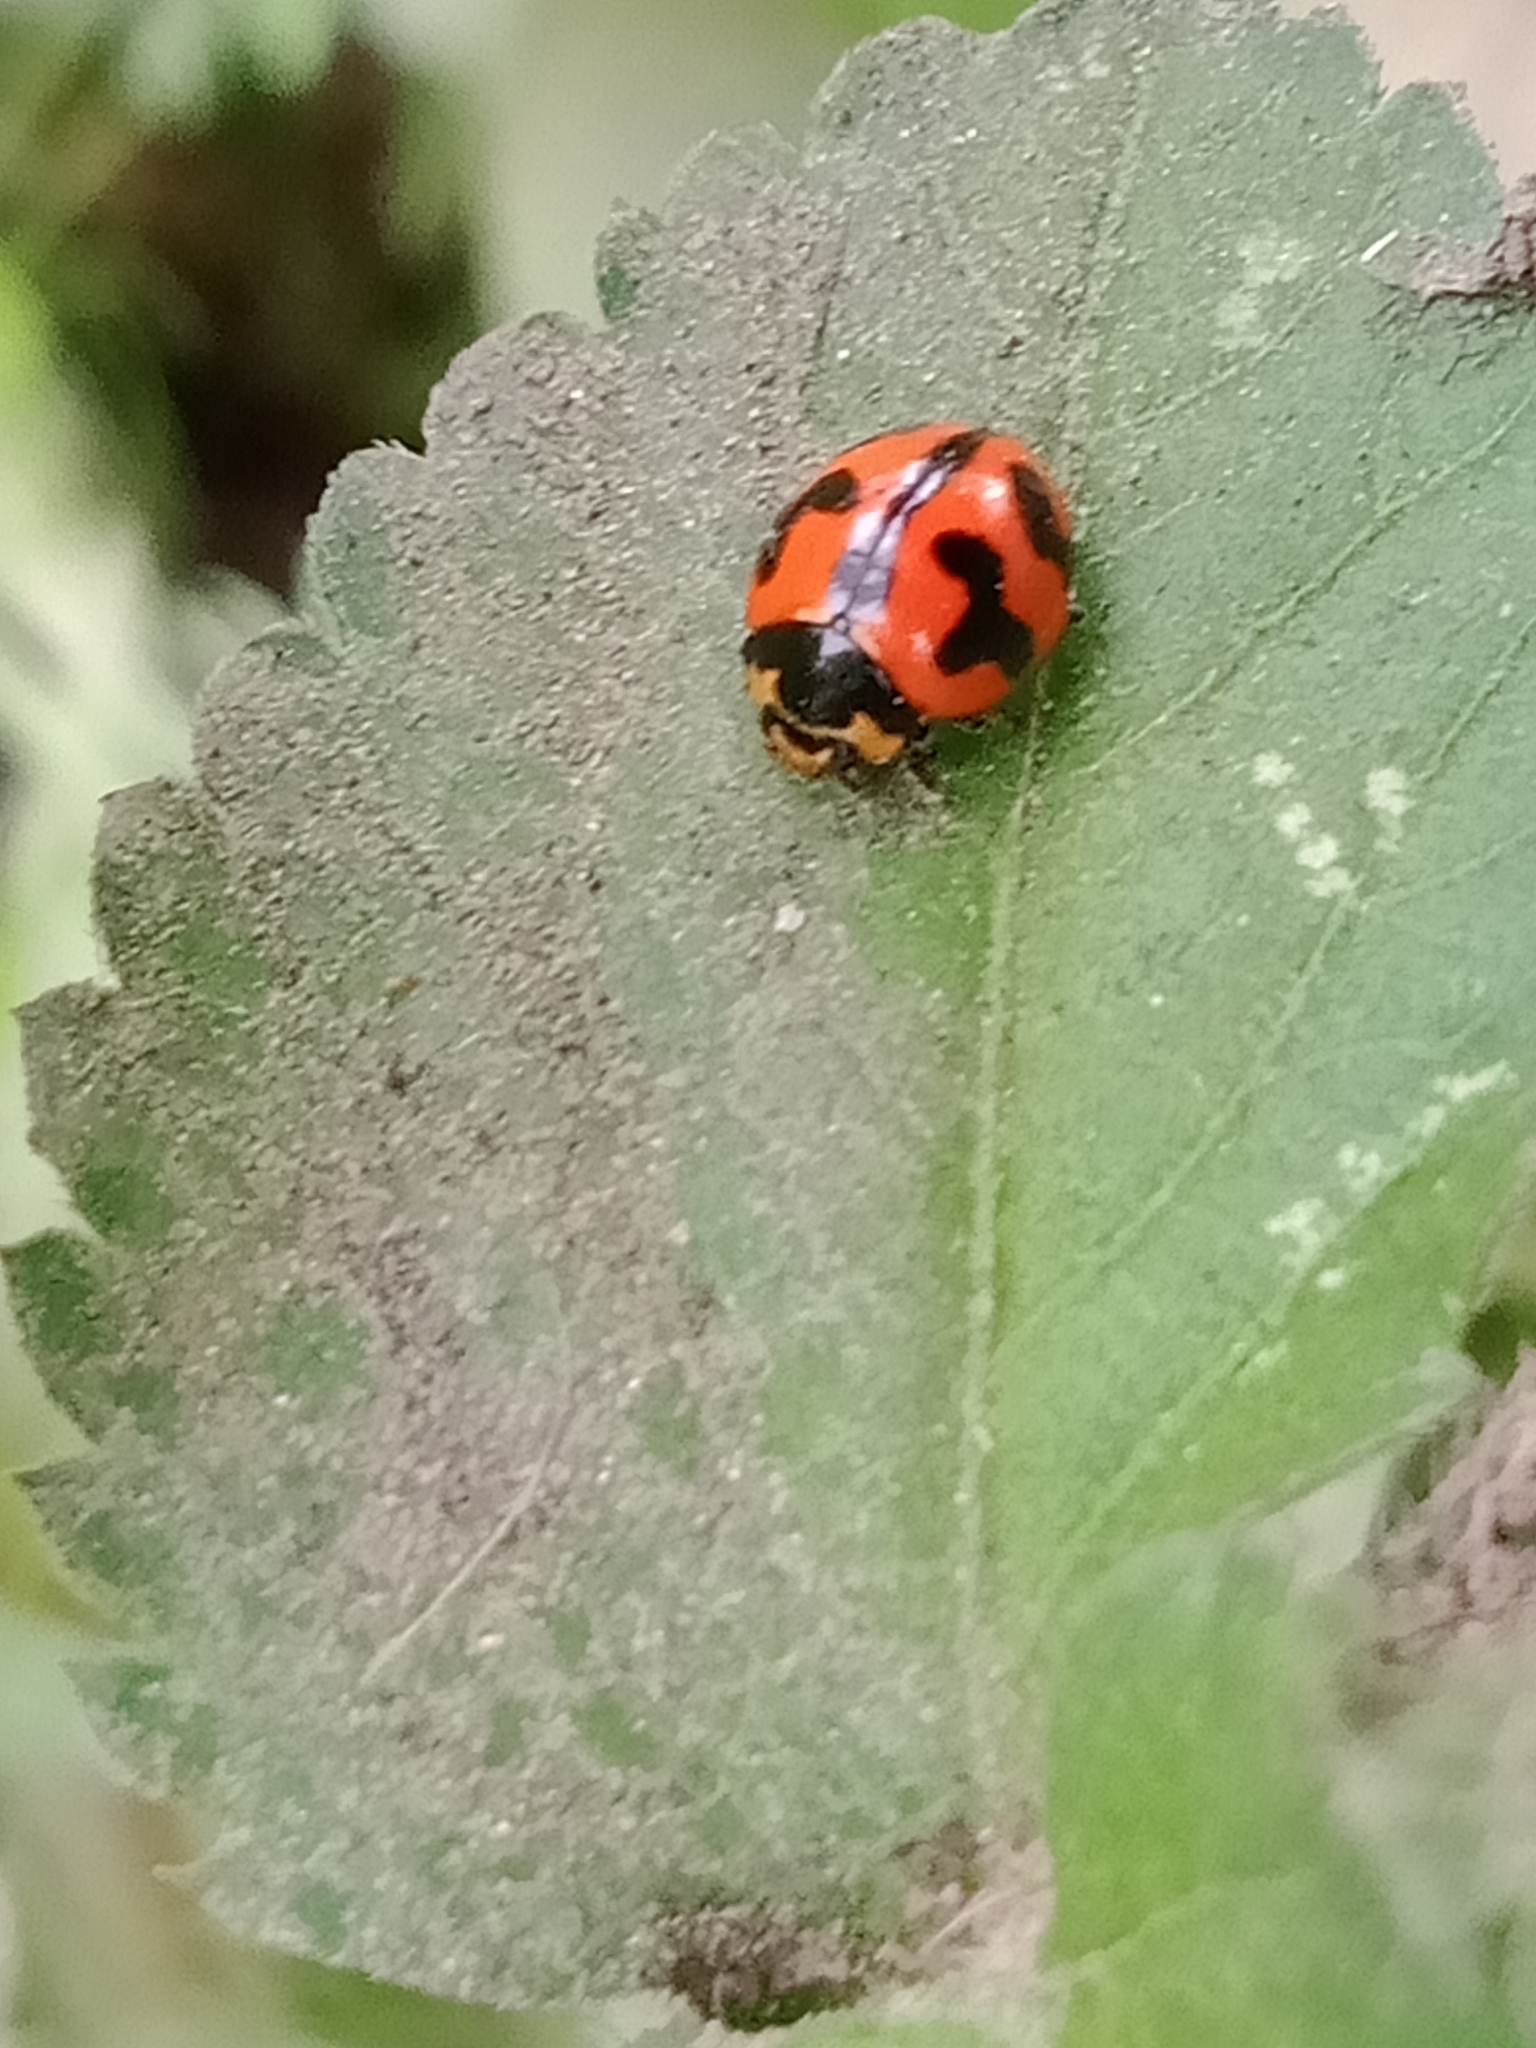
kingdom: Animalia
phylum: Arthropoda
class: Insecta
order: Coleoptera
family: Coccinellidae
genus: Coccinella
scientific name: Coccinella transversalis
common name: Transverse lady beetle
